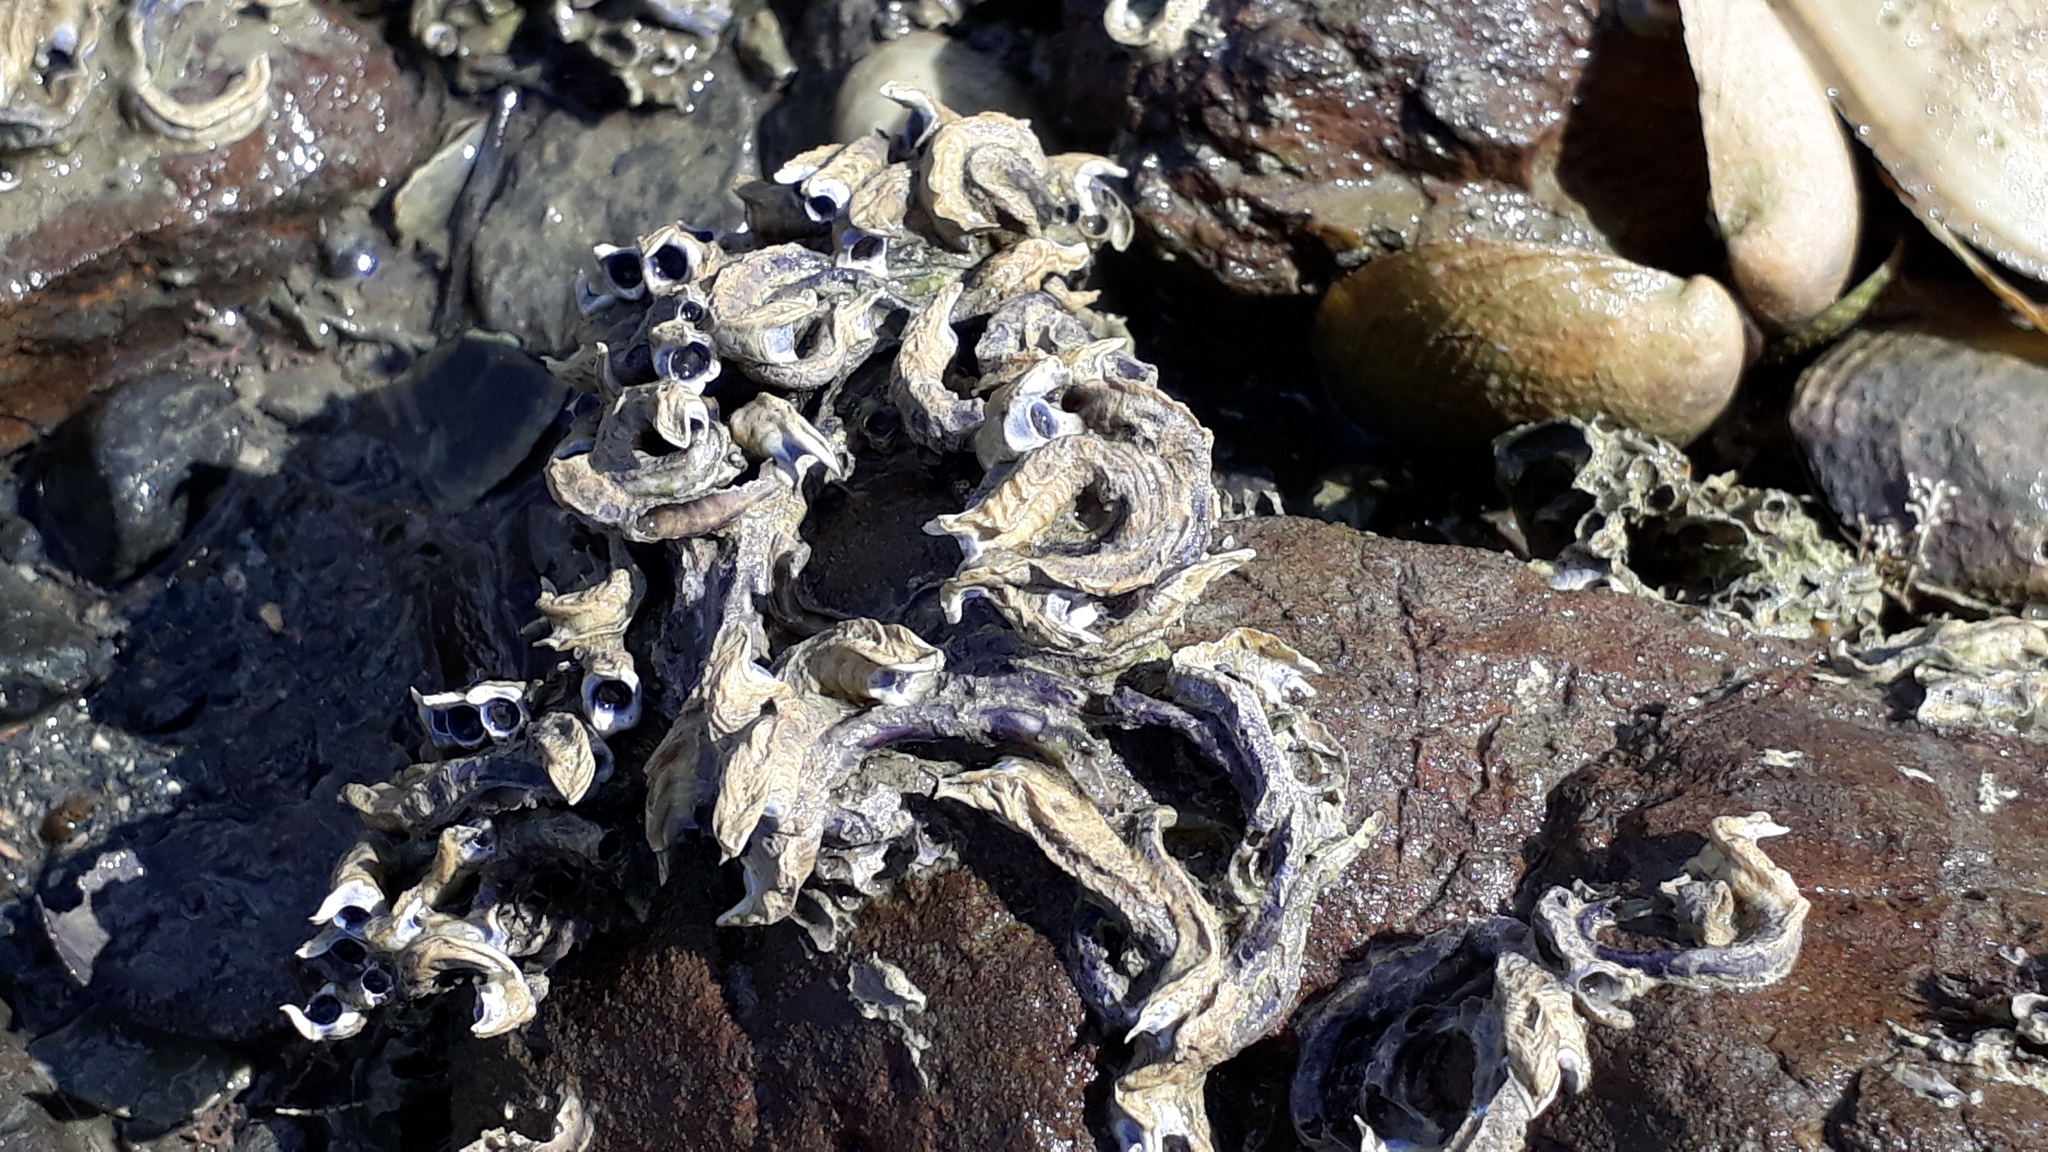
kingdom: Animalia
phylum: Annelida
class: Polychaeta
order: Sabellida
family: Serpulidae
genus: Spirobranchus
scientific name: Spirobranchus cariniferus
